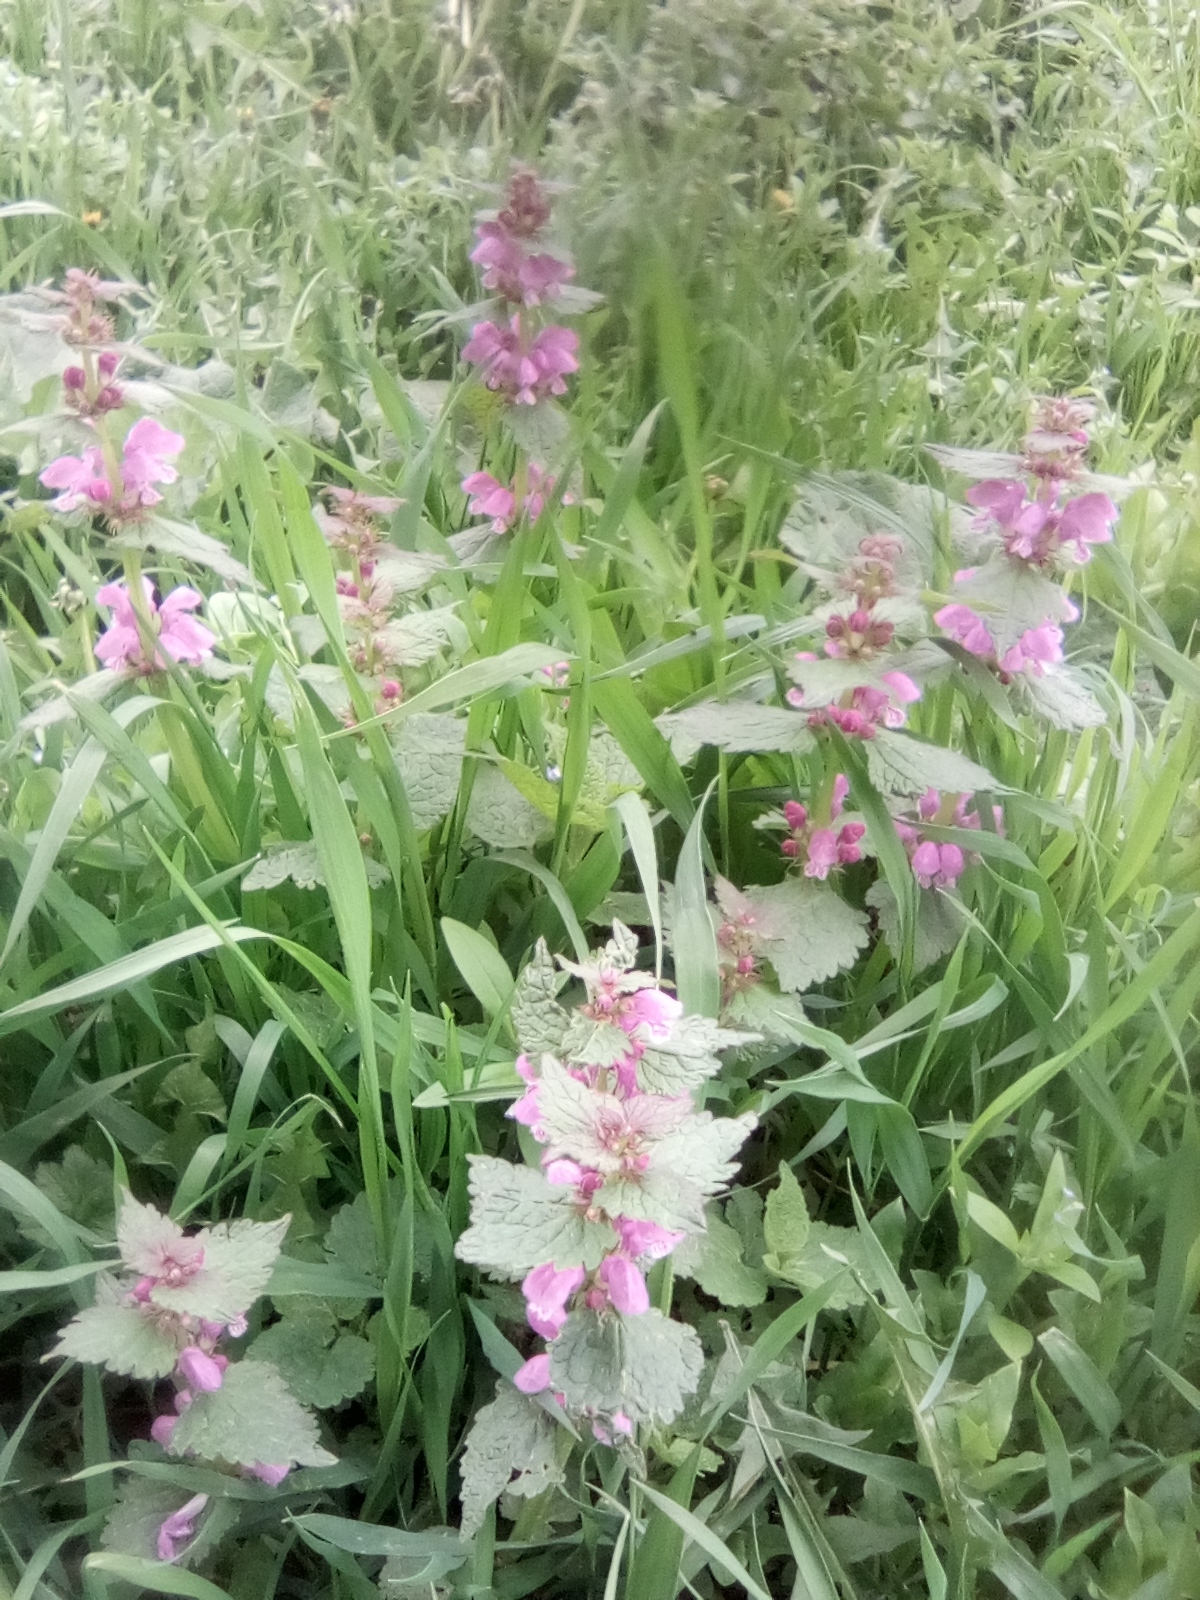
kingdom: Plantae
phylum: Tracheophyta
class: Magnoliopsida
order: Lamiales
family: Lamiaceae
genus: Lamium
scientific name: Lamium maculatum
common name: Spotted dead-nettle
